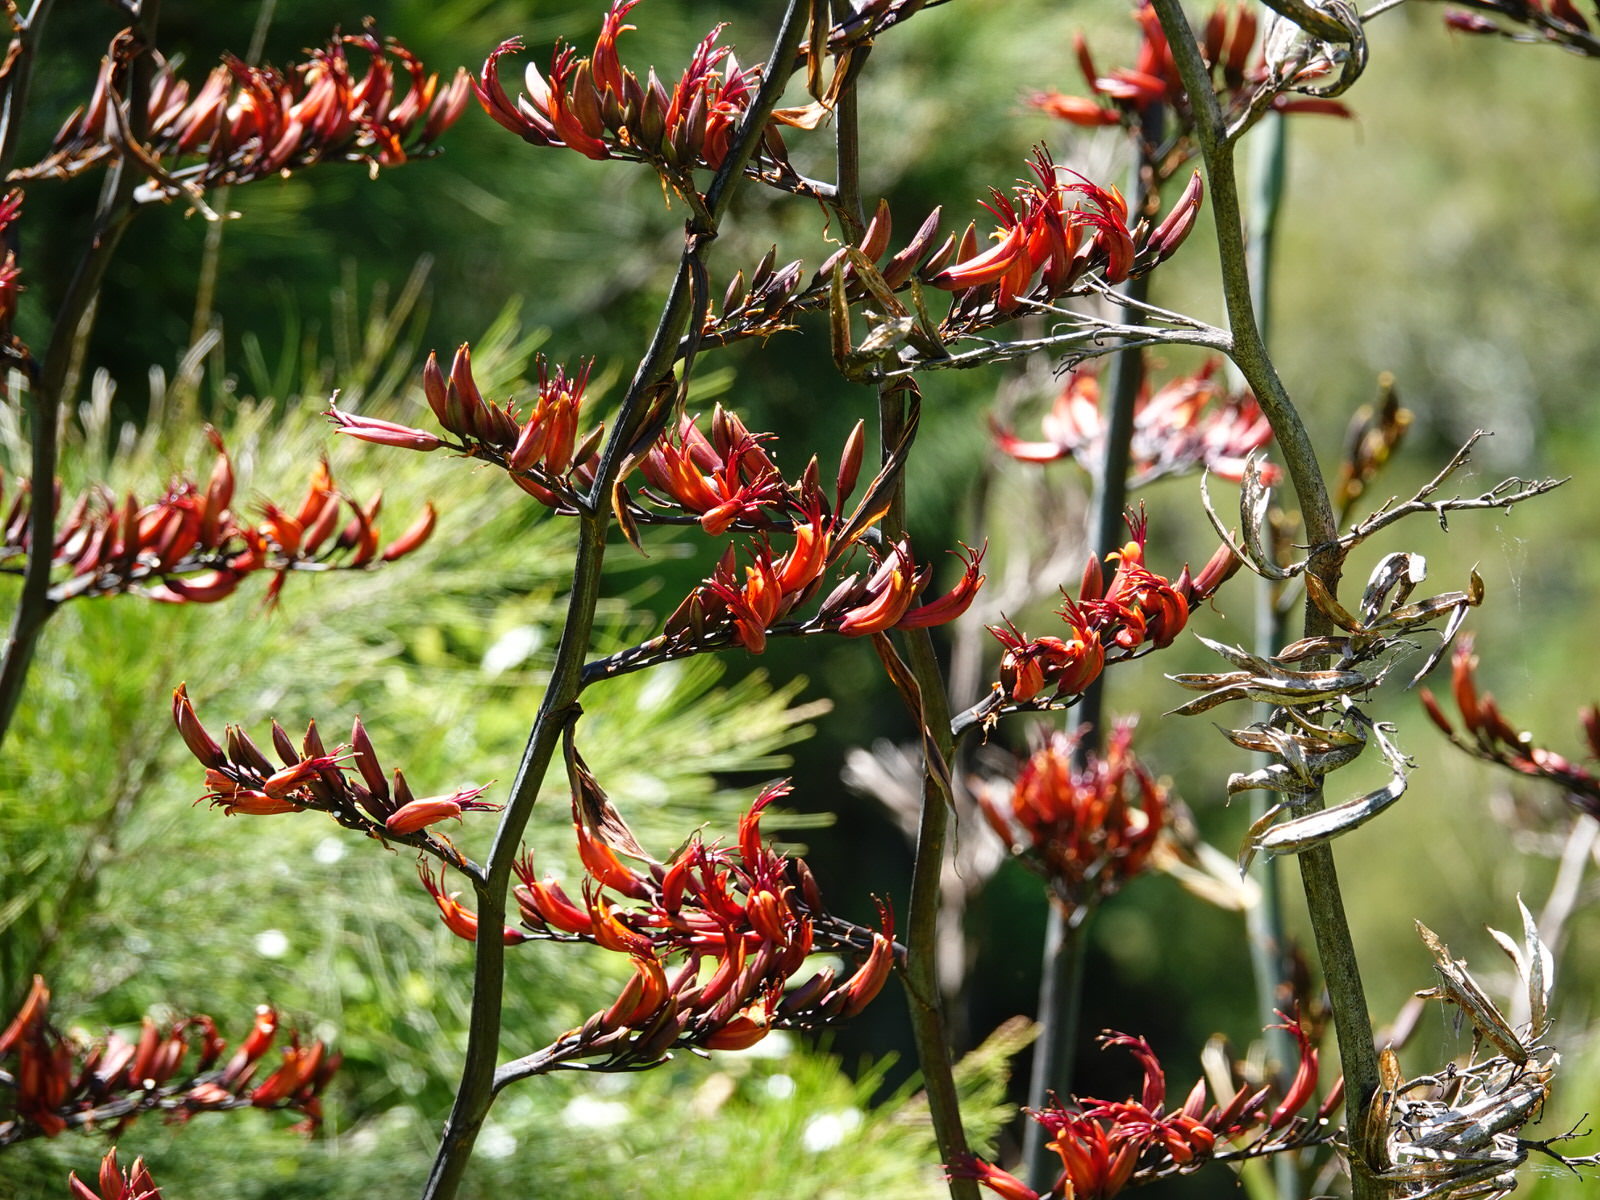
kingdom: Plantae
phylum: Tracheophyta
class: Liliopsida
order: Asparagales
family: Asphodelaceae
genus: Phormium
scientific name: Phormium tenax
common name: New zealand flax
